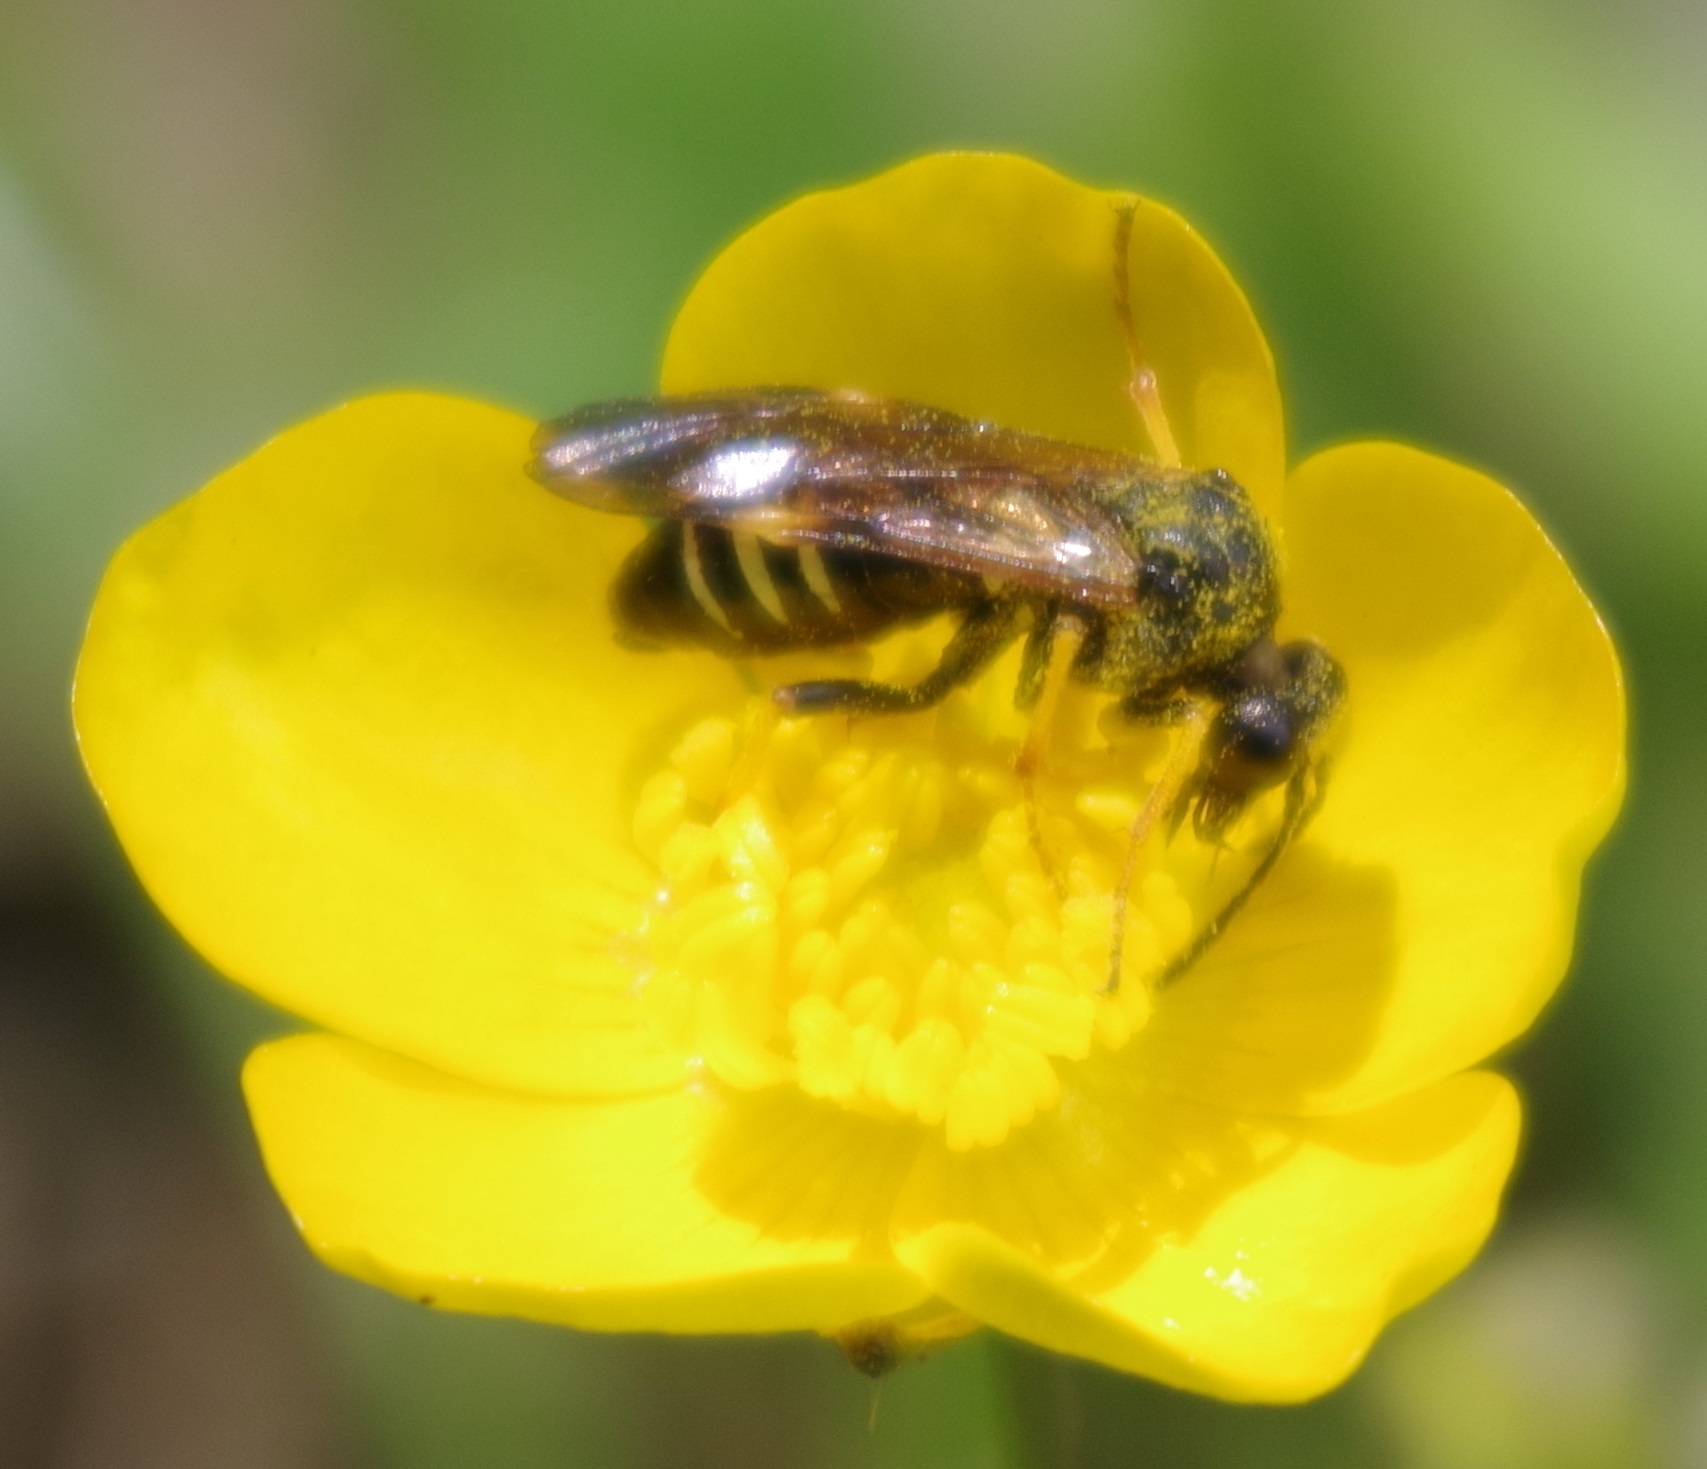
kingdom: Animalia
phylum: Arthropoda
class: Insecta
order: Hymenoptera
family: Tenthredinidae
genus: Tenthredo
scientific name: Tenthredo koehleri
